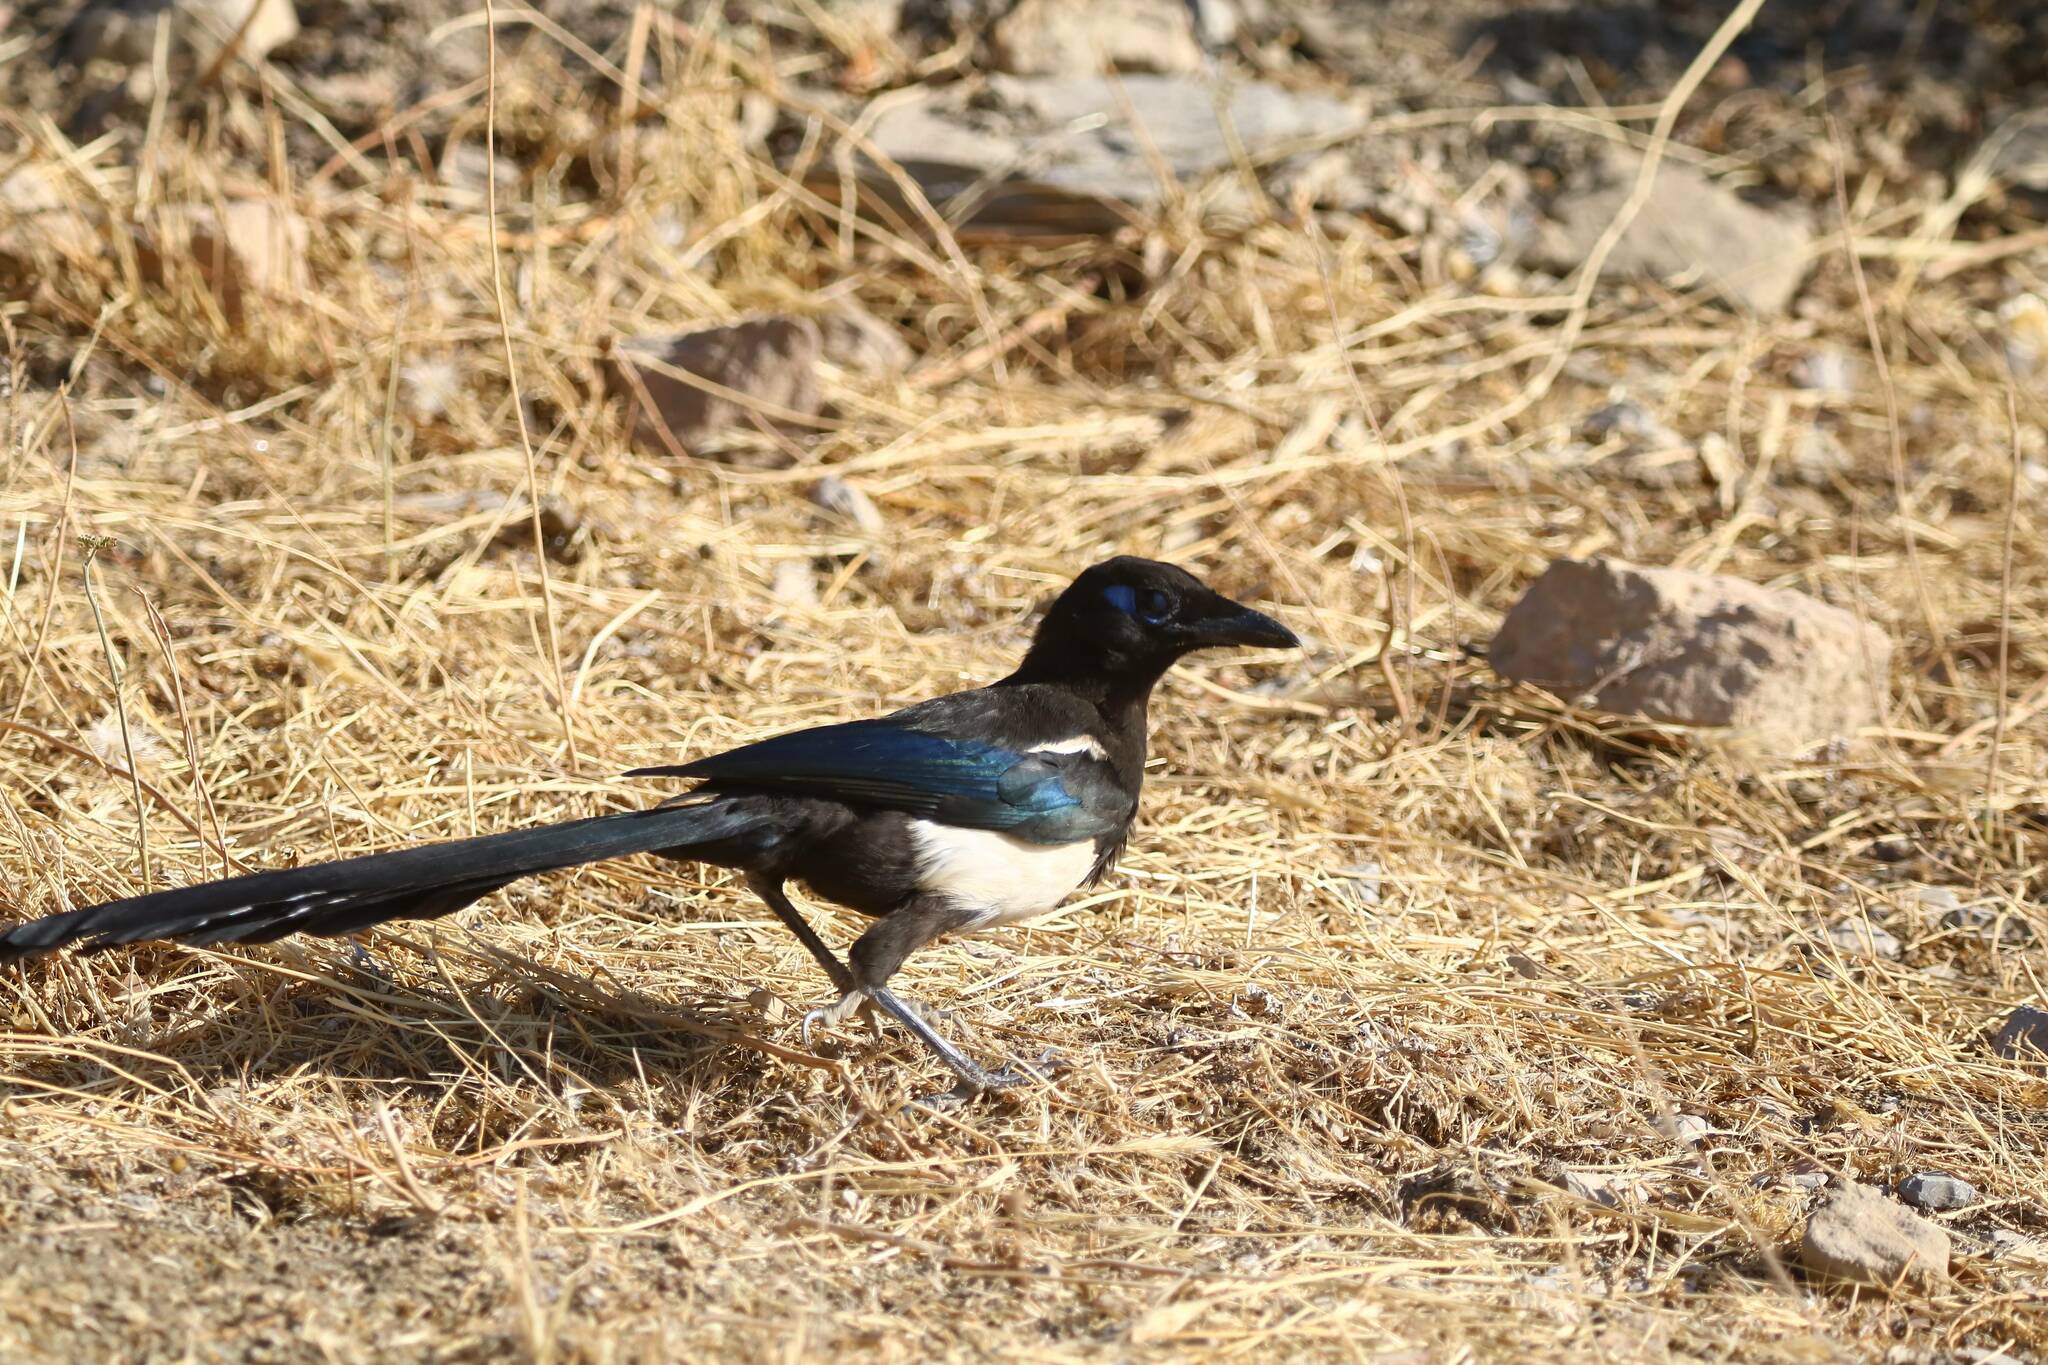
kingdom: Animalia
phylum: Chordata
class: Aves
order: Passeriformes
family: Corvidae
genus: Pica
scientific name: Pica mauritanica
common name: Maghreb magpie
